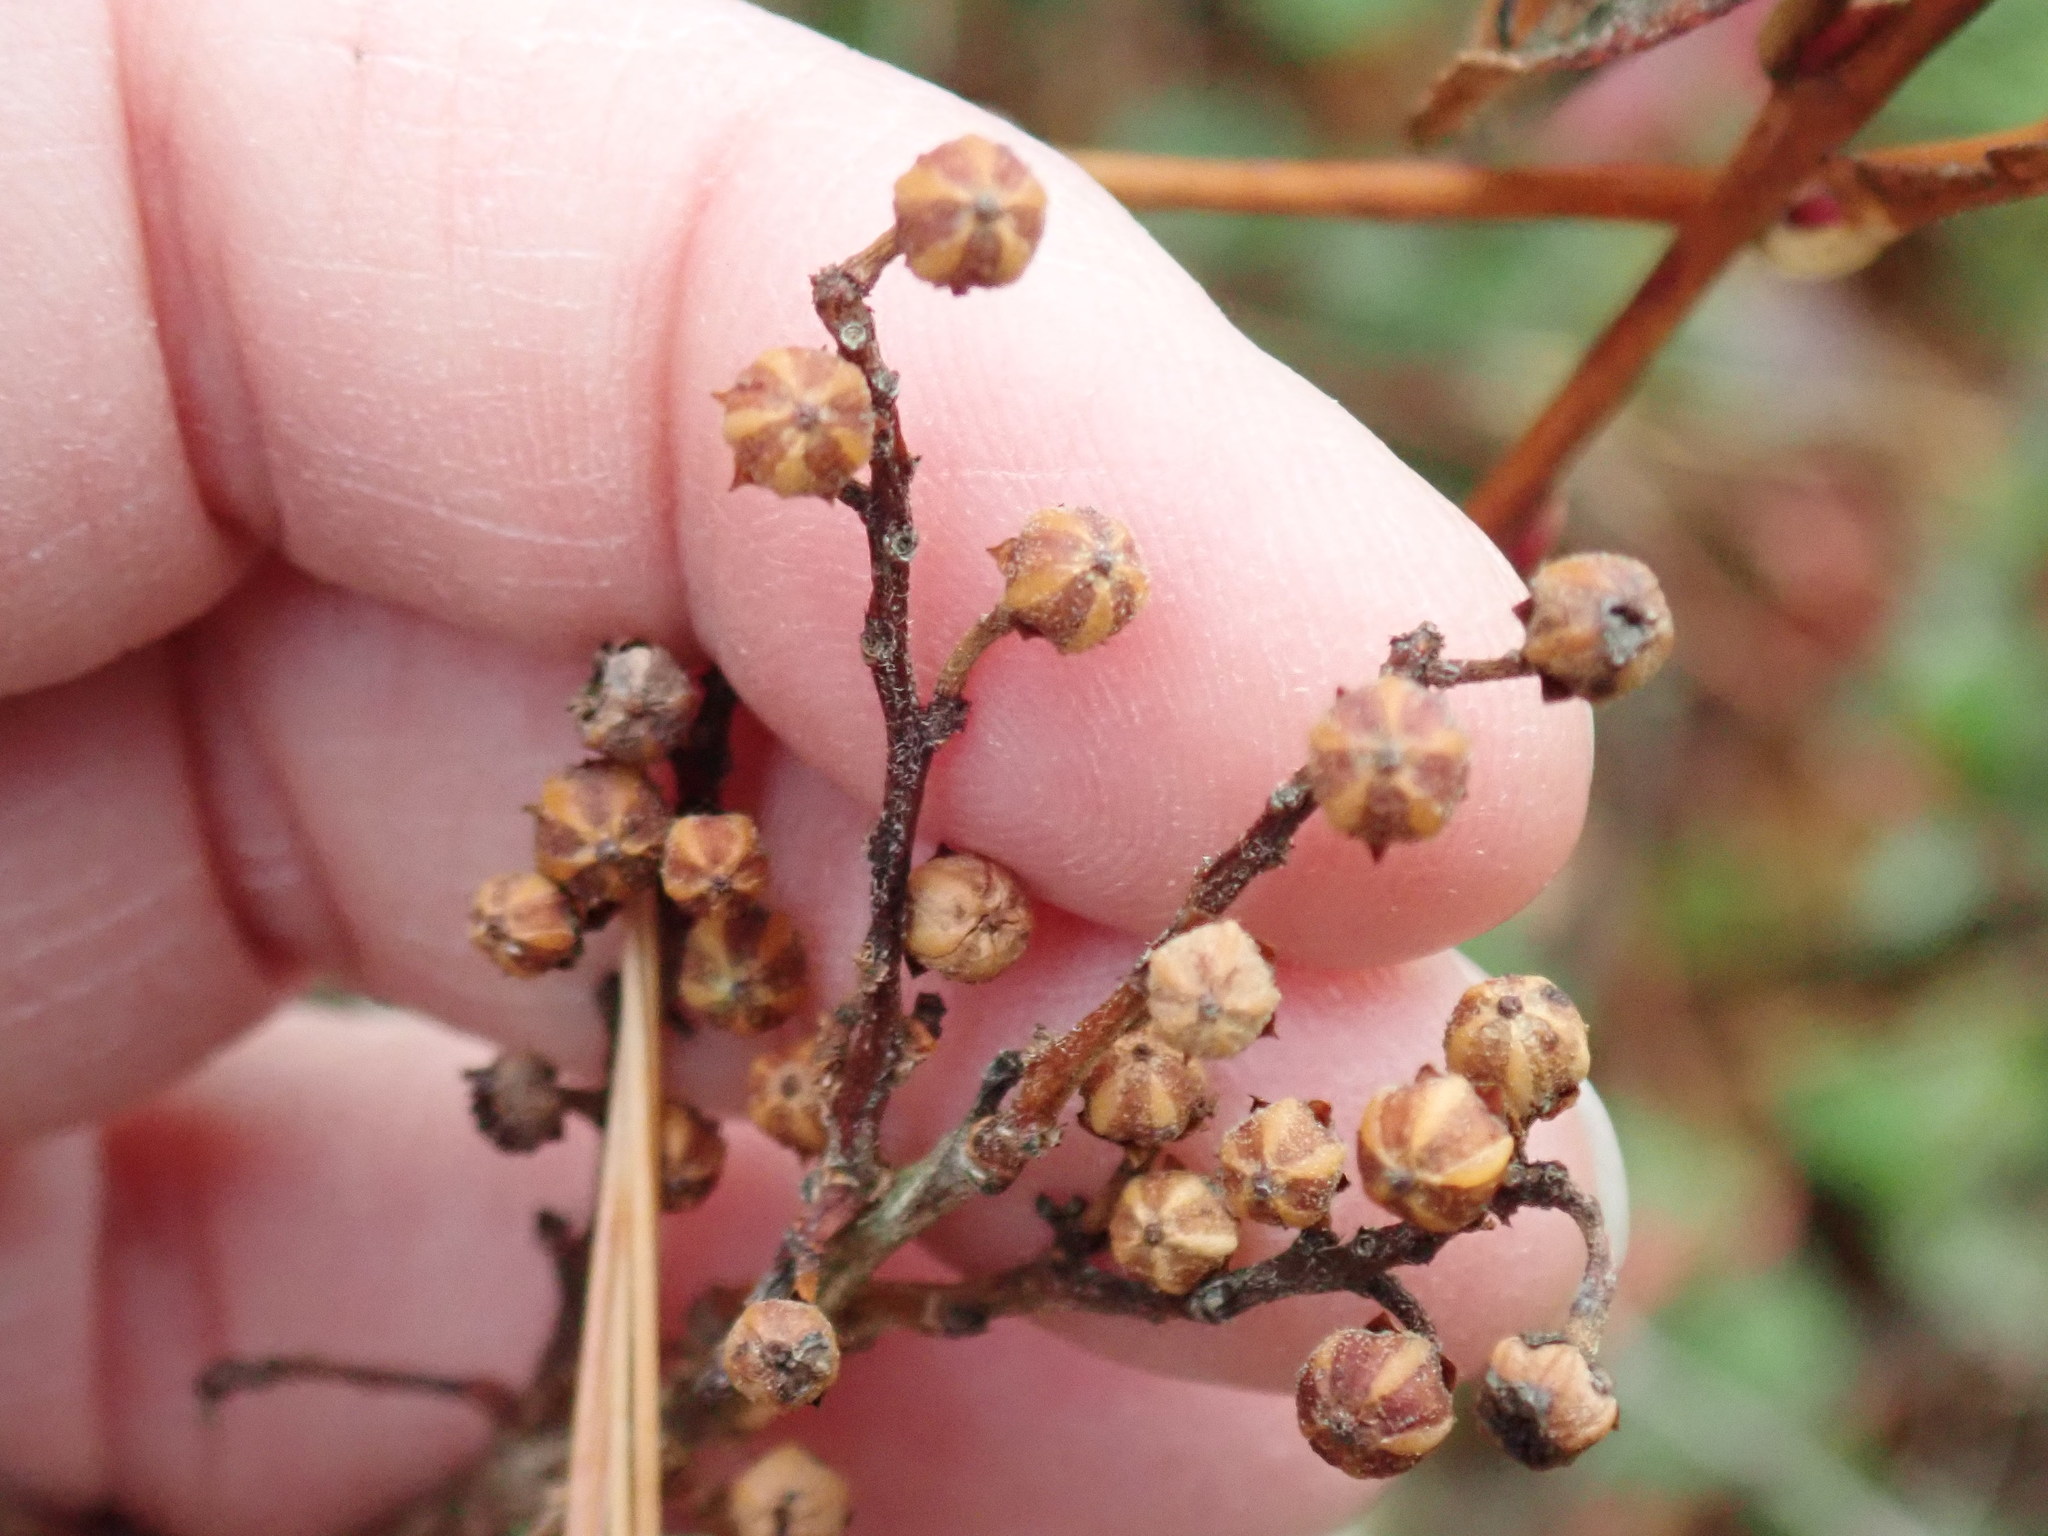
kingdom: Plantae
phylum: Tracheophyta
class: Magnoliopsida
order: Ericales
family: Ericaceae
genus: Lyonia
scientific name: Lyonia ligustrina
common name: Maleberry
